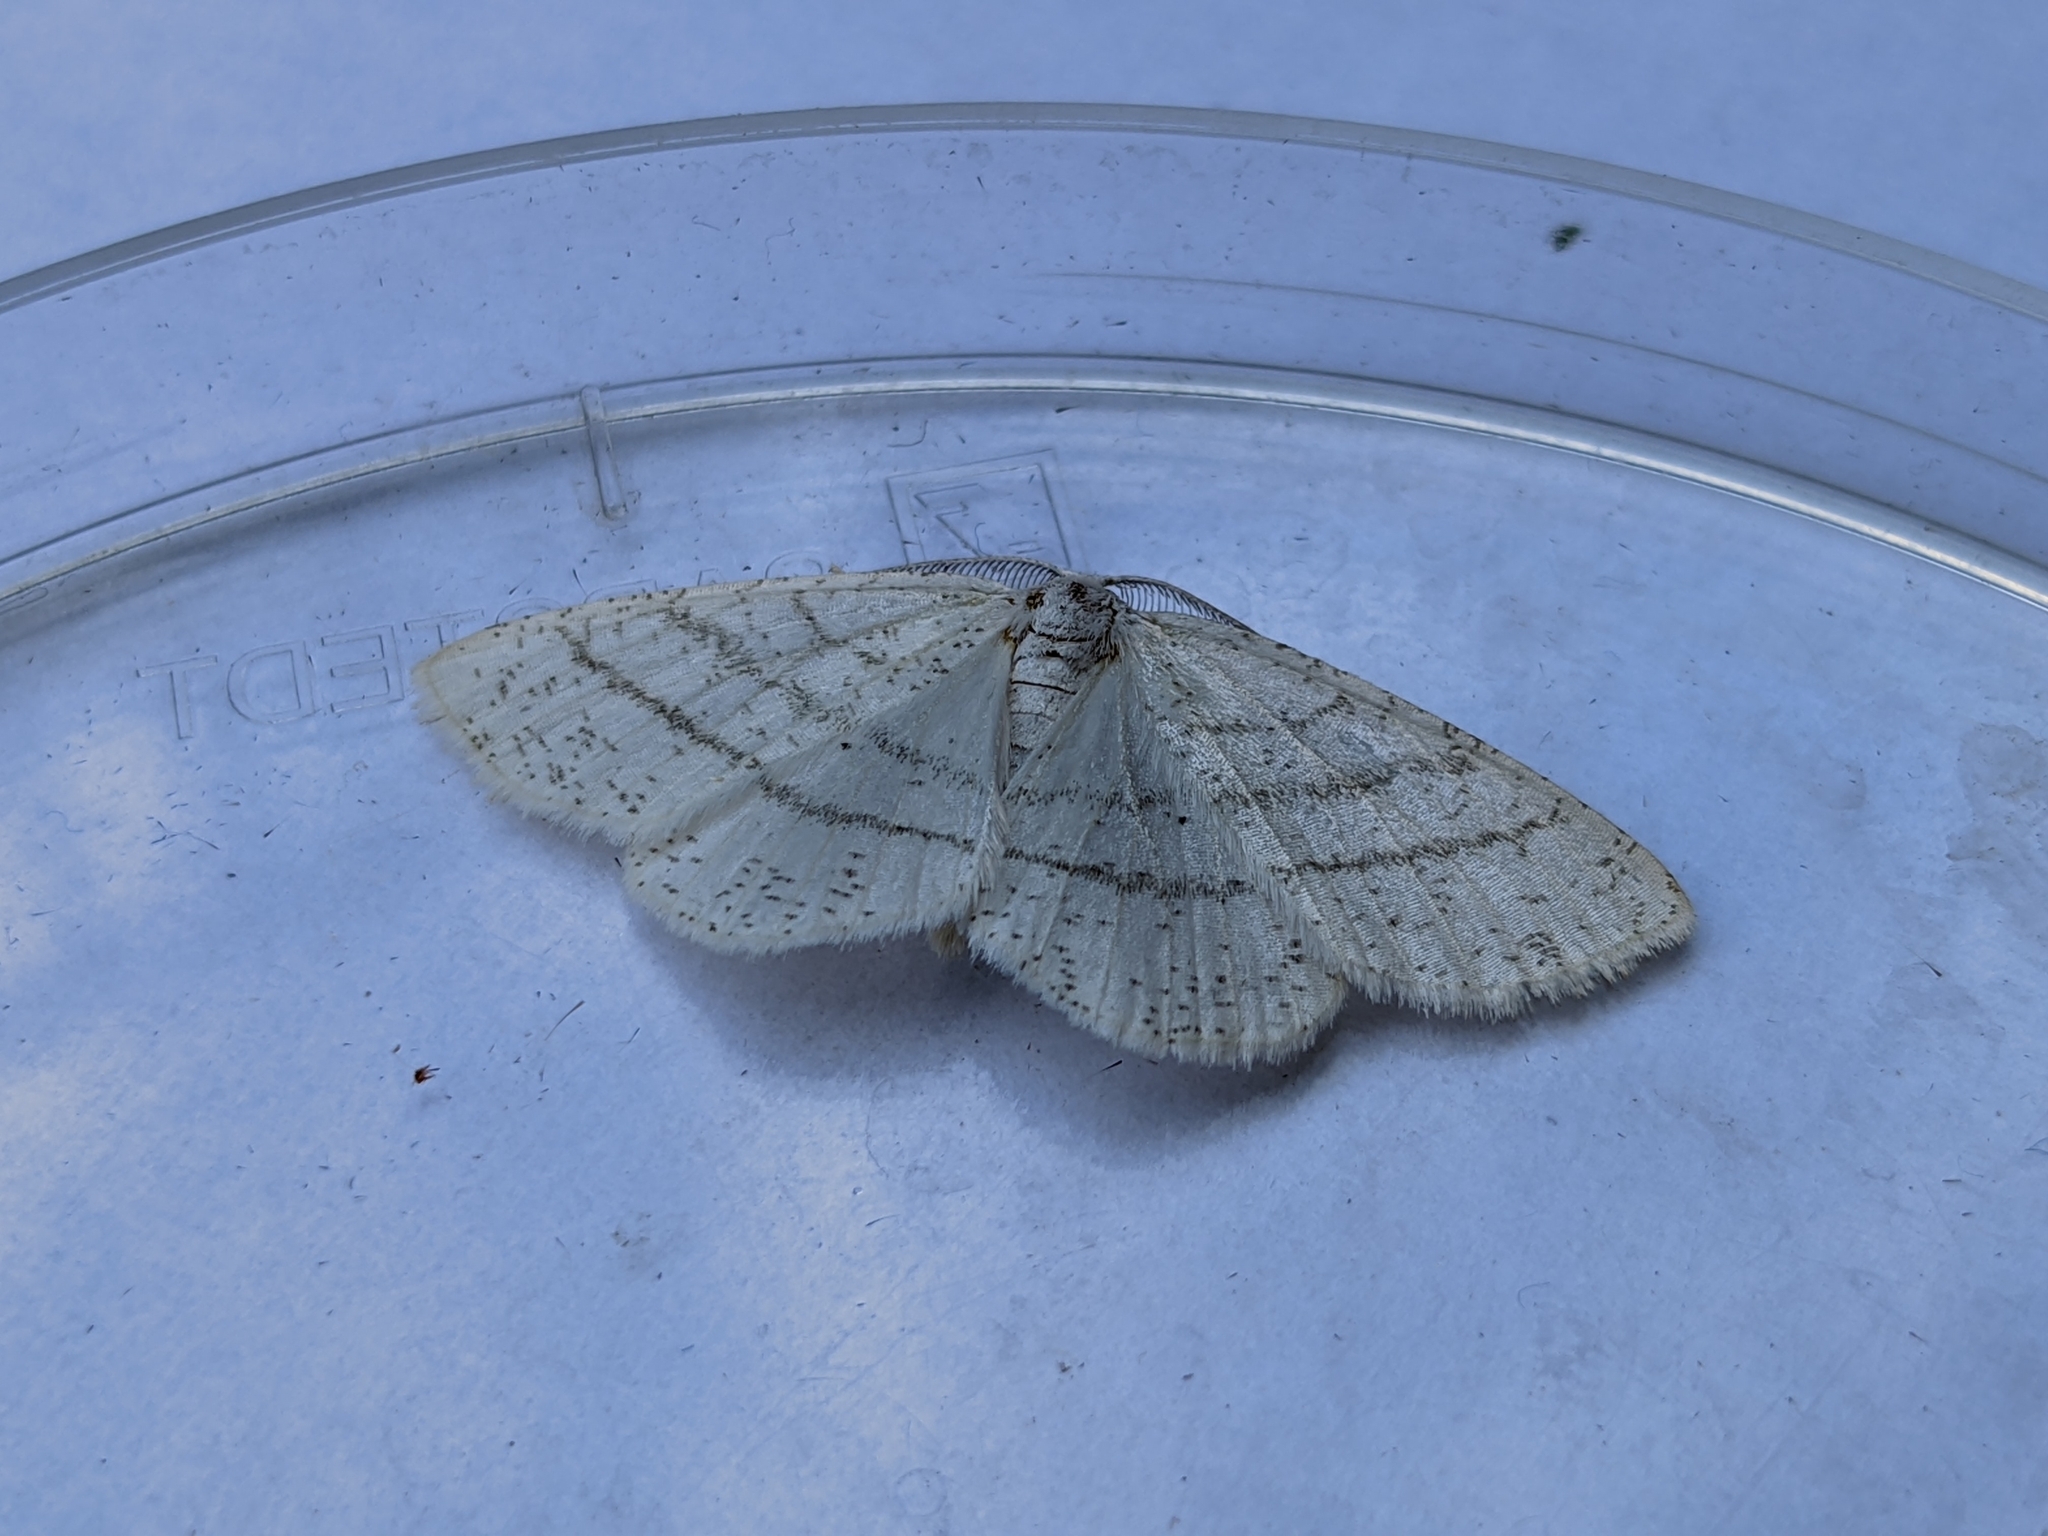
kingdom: Animalia
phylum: Arthropoda
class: Insecta
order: Lepidoptera
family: Geometridae
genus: Cabera
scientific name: Cabera pusaria
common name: Common white wave
